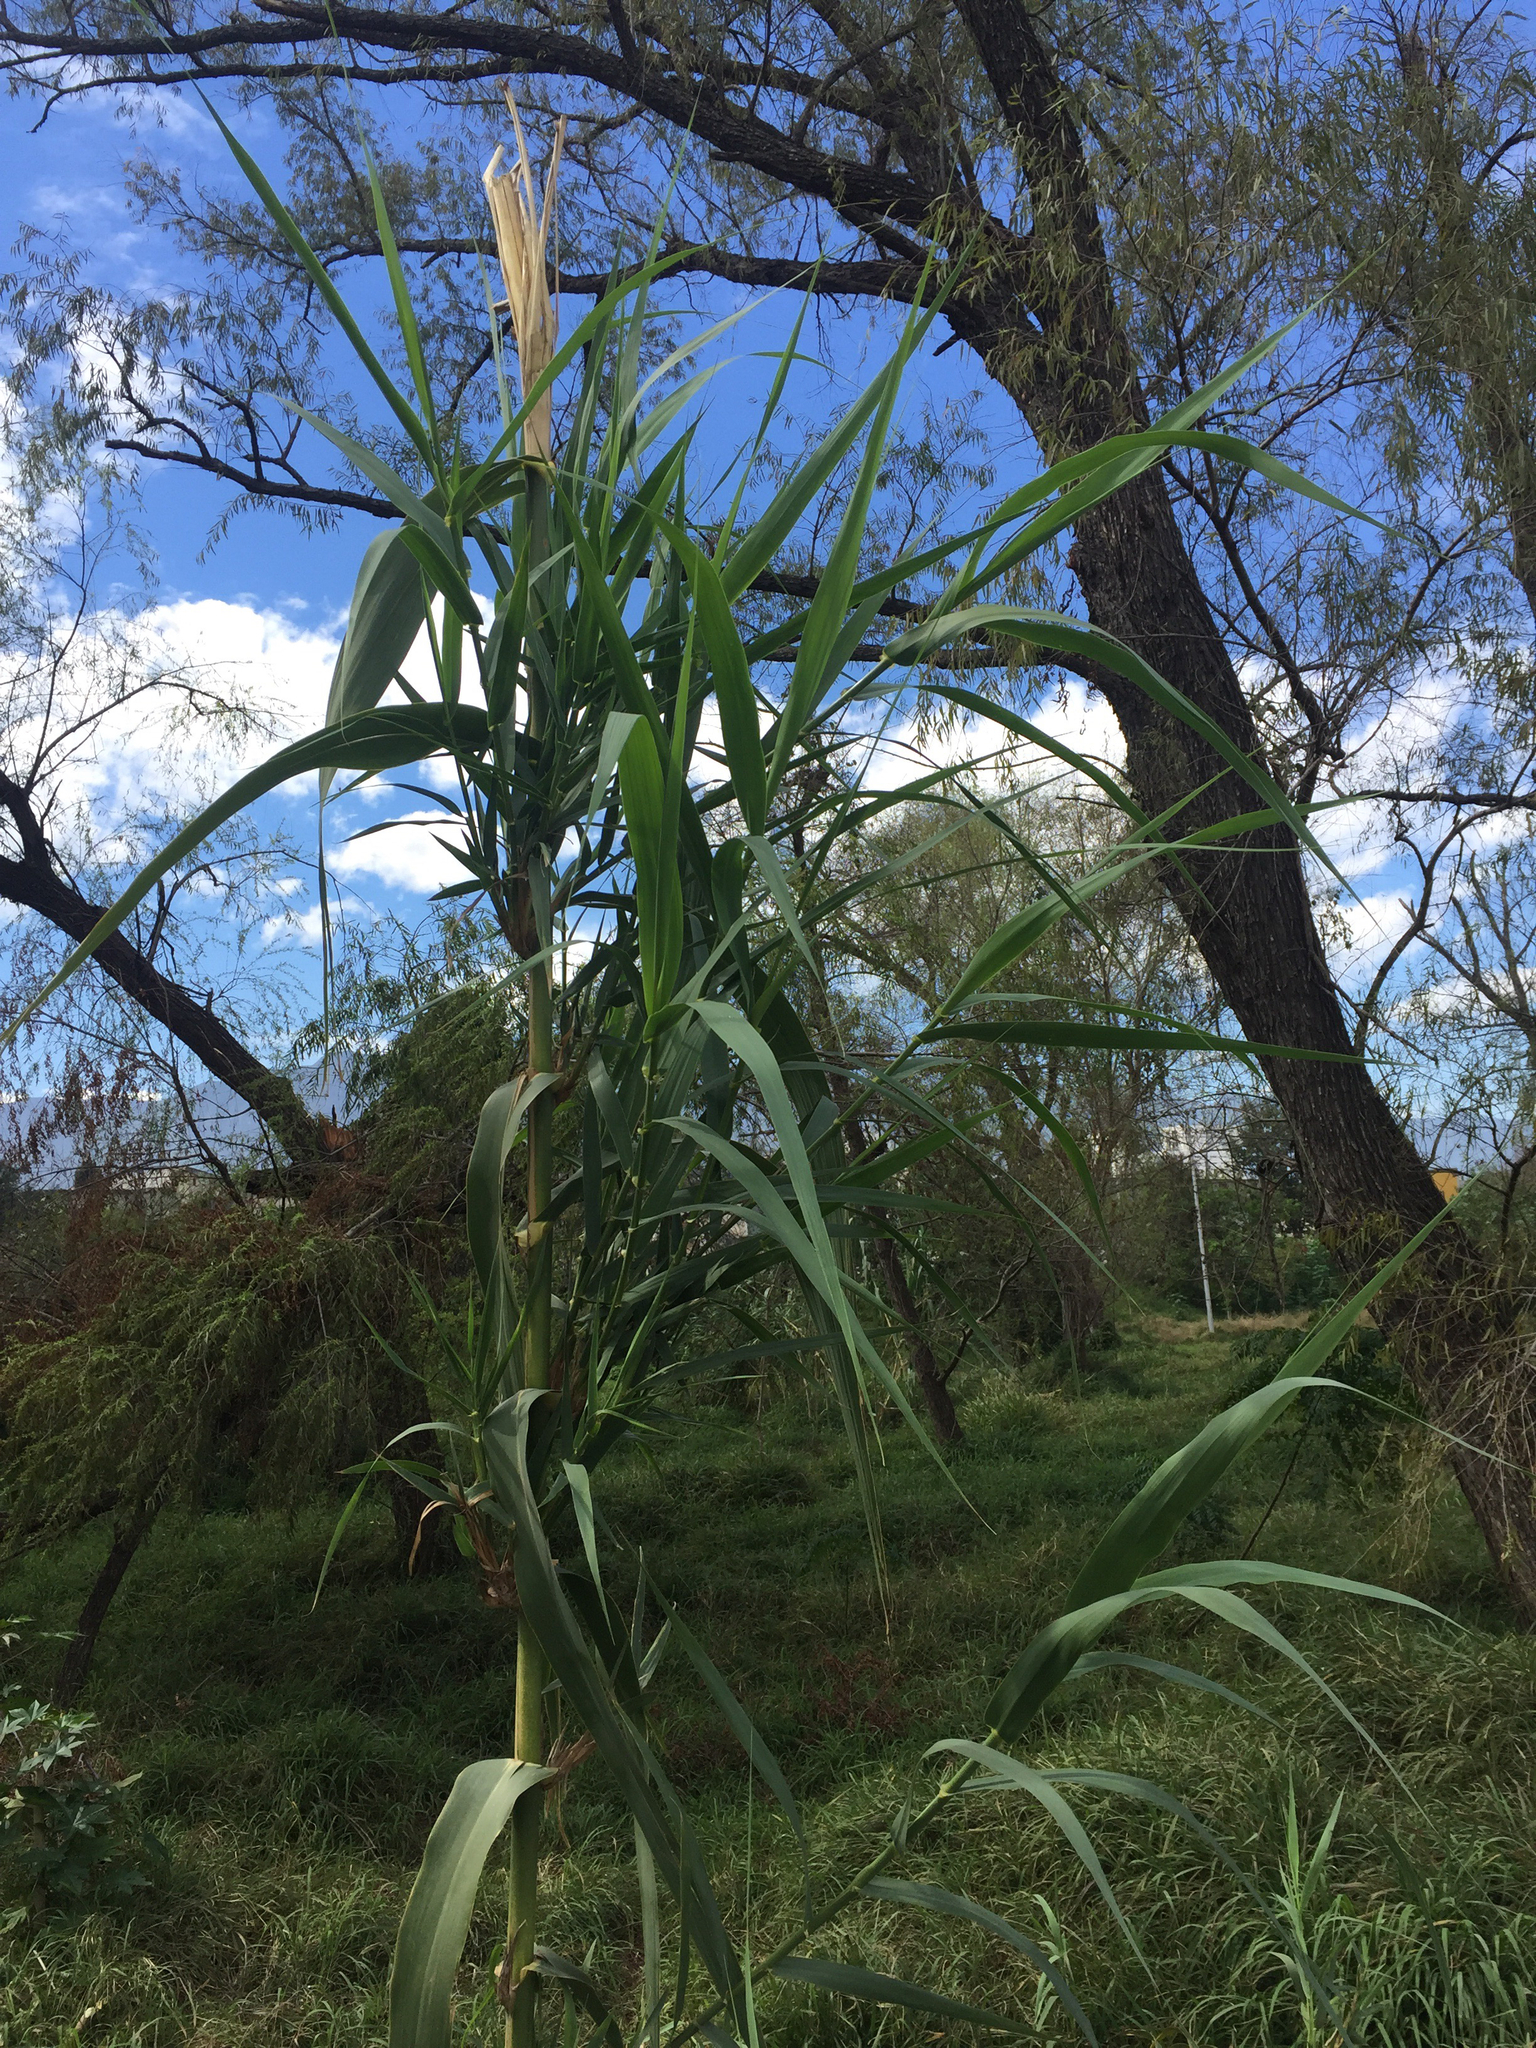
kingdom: Plantae
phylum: Tracheophyta
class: Liliopsida
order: Poales
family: Poaceae
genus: Arundo
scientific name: Arundo donax
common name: Giant reed
